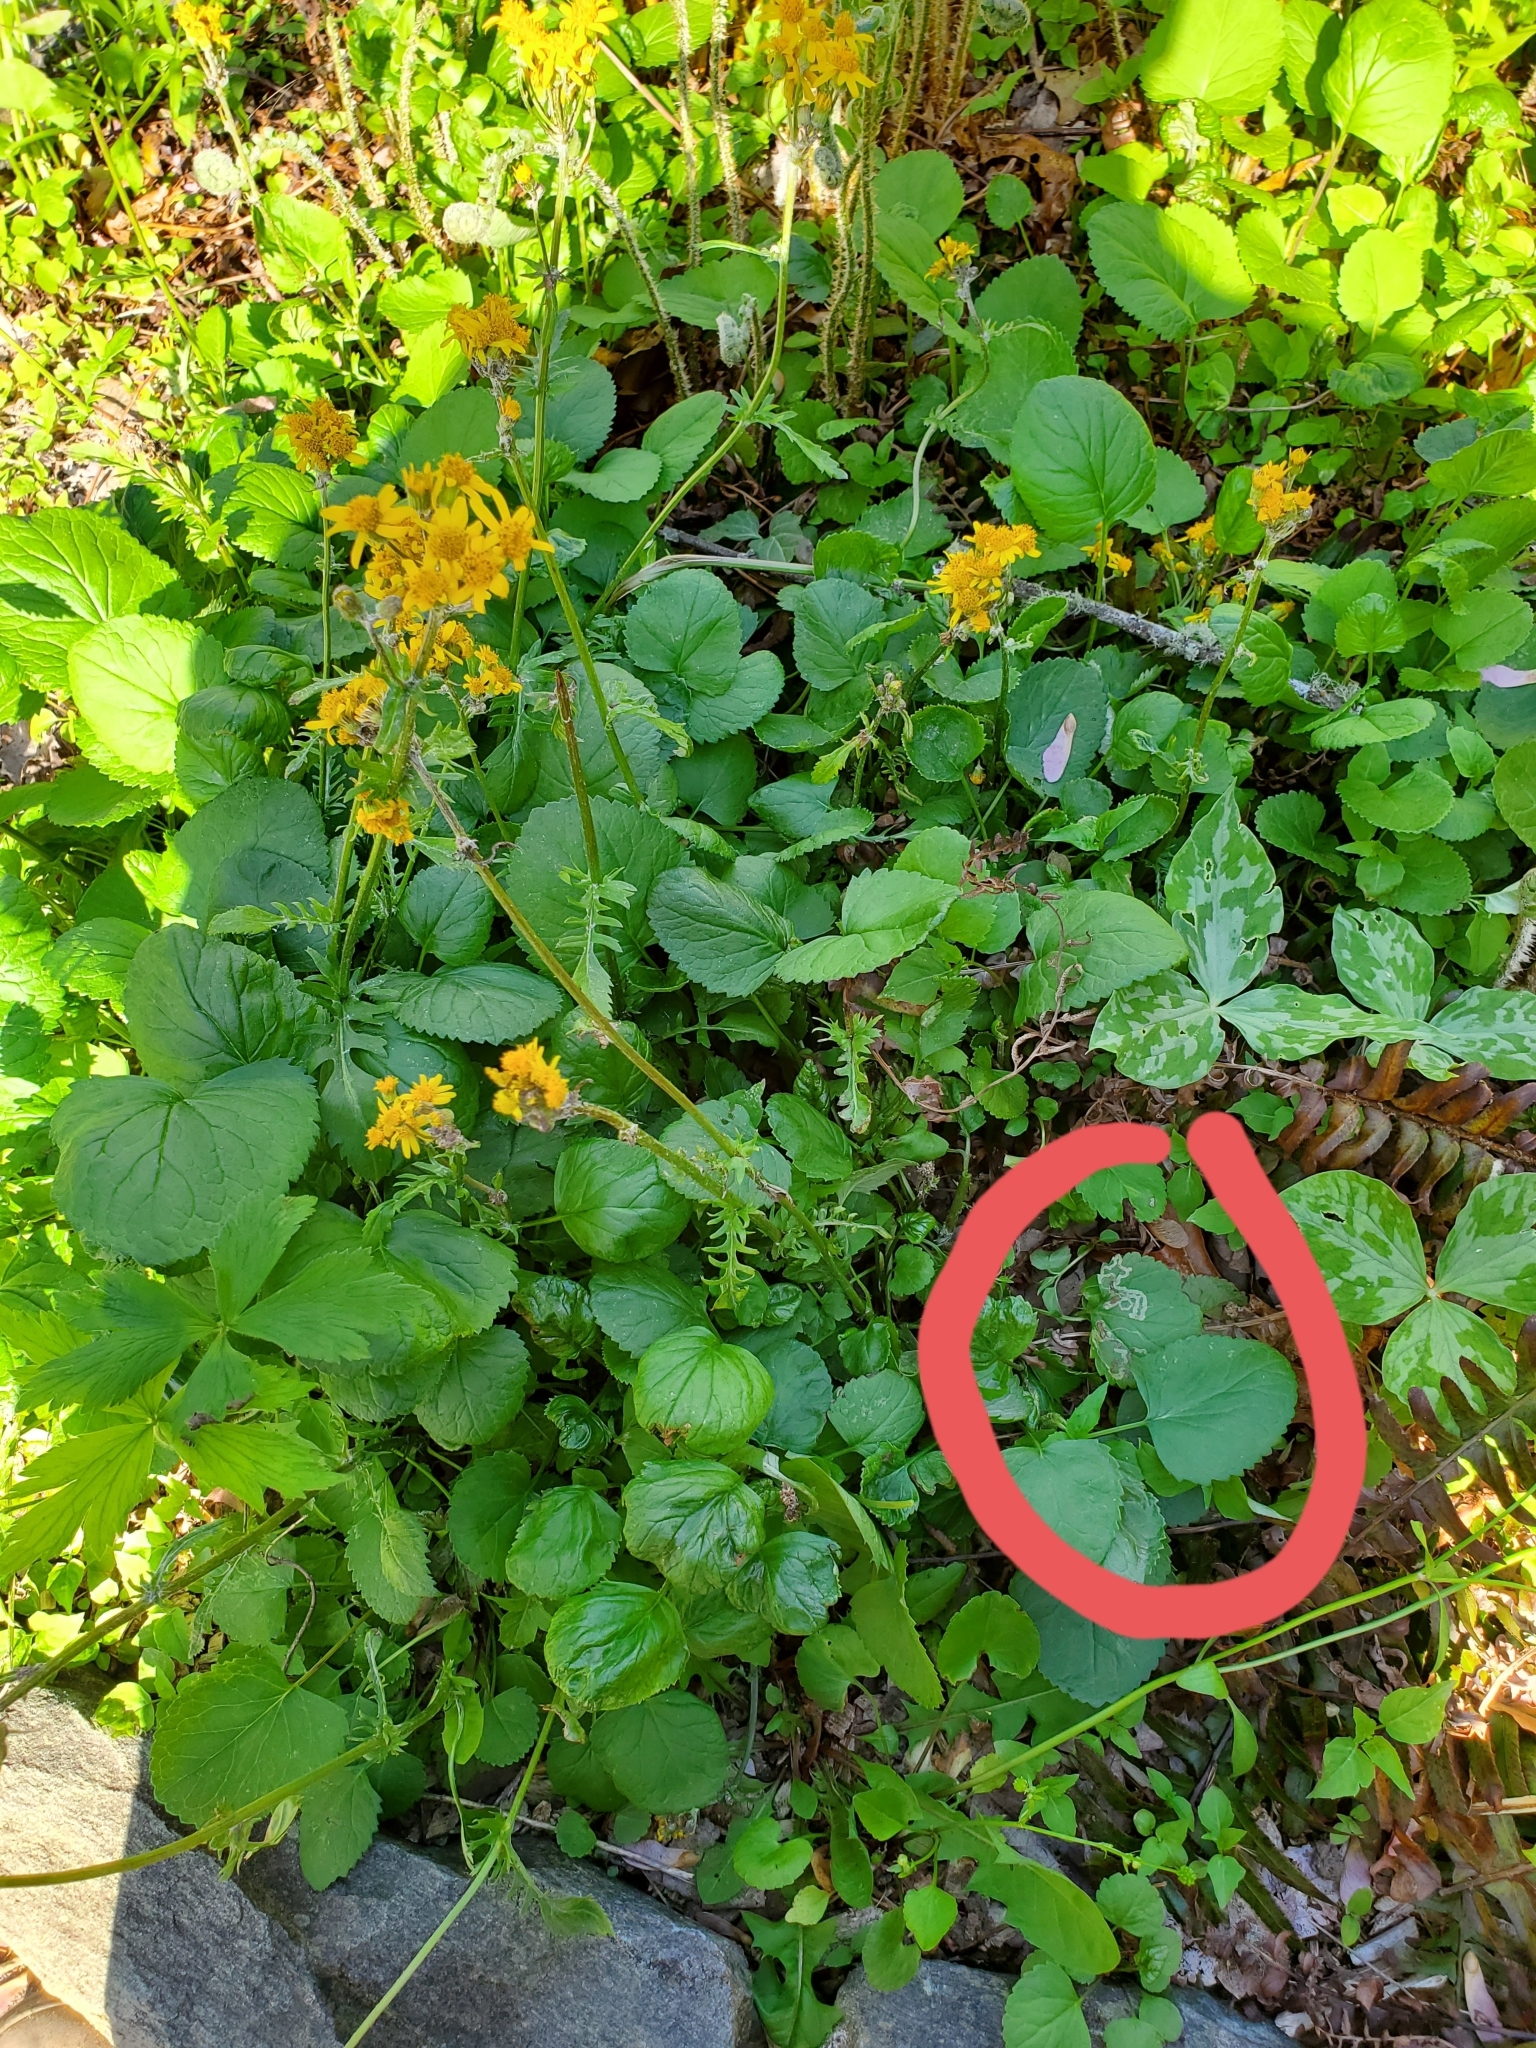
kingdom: Animalia
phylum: Arthropoda
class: Insecta
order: Lepidoptera
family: Gracillariidae
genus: Phyllocnistis
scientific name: Phyllocnistis insignis
